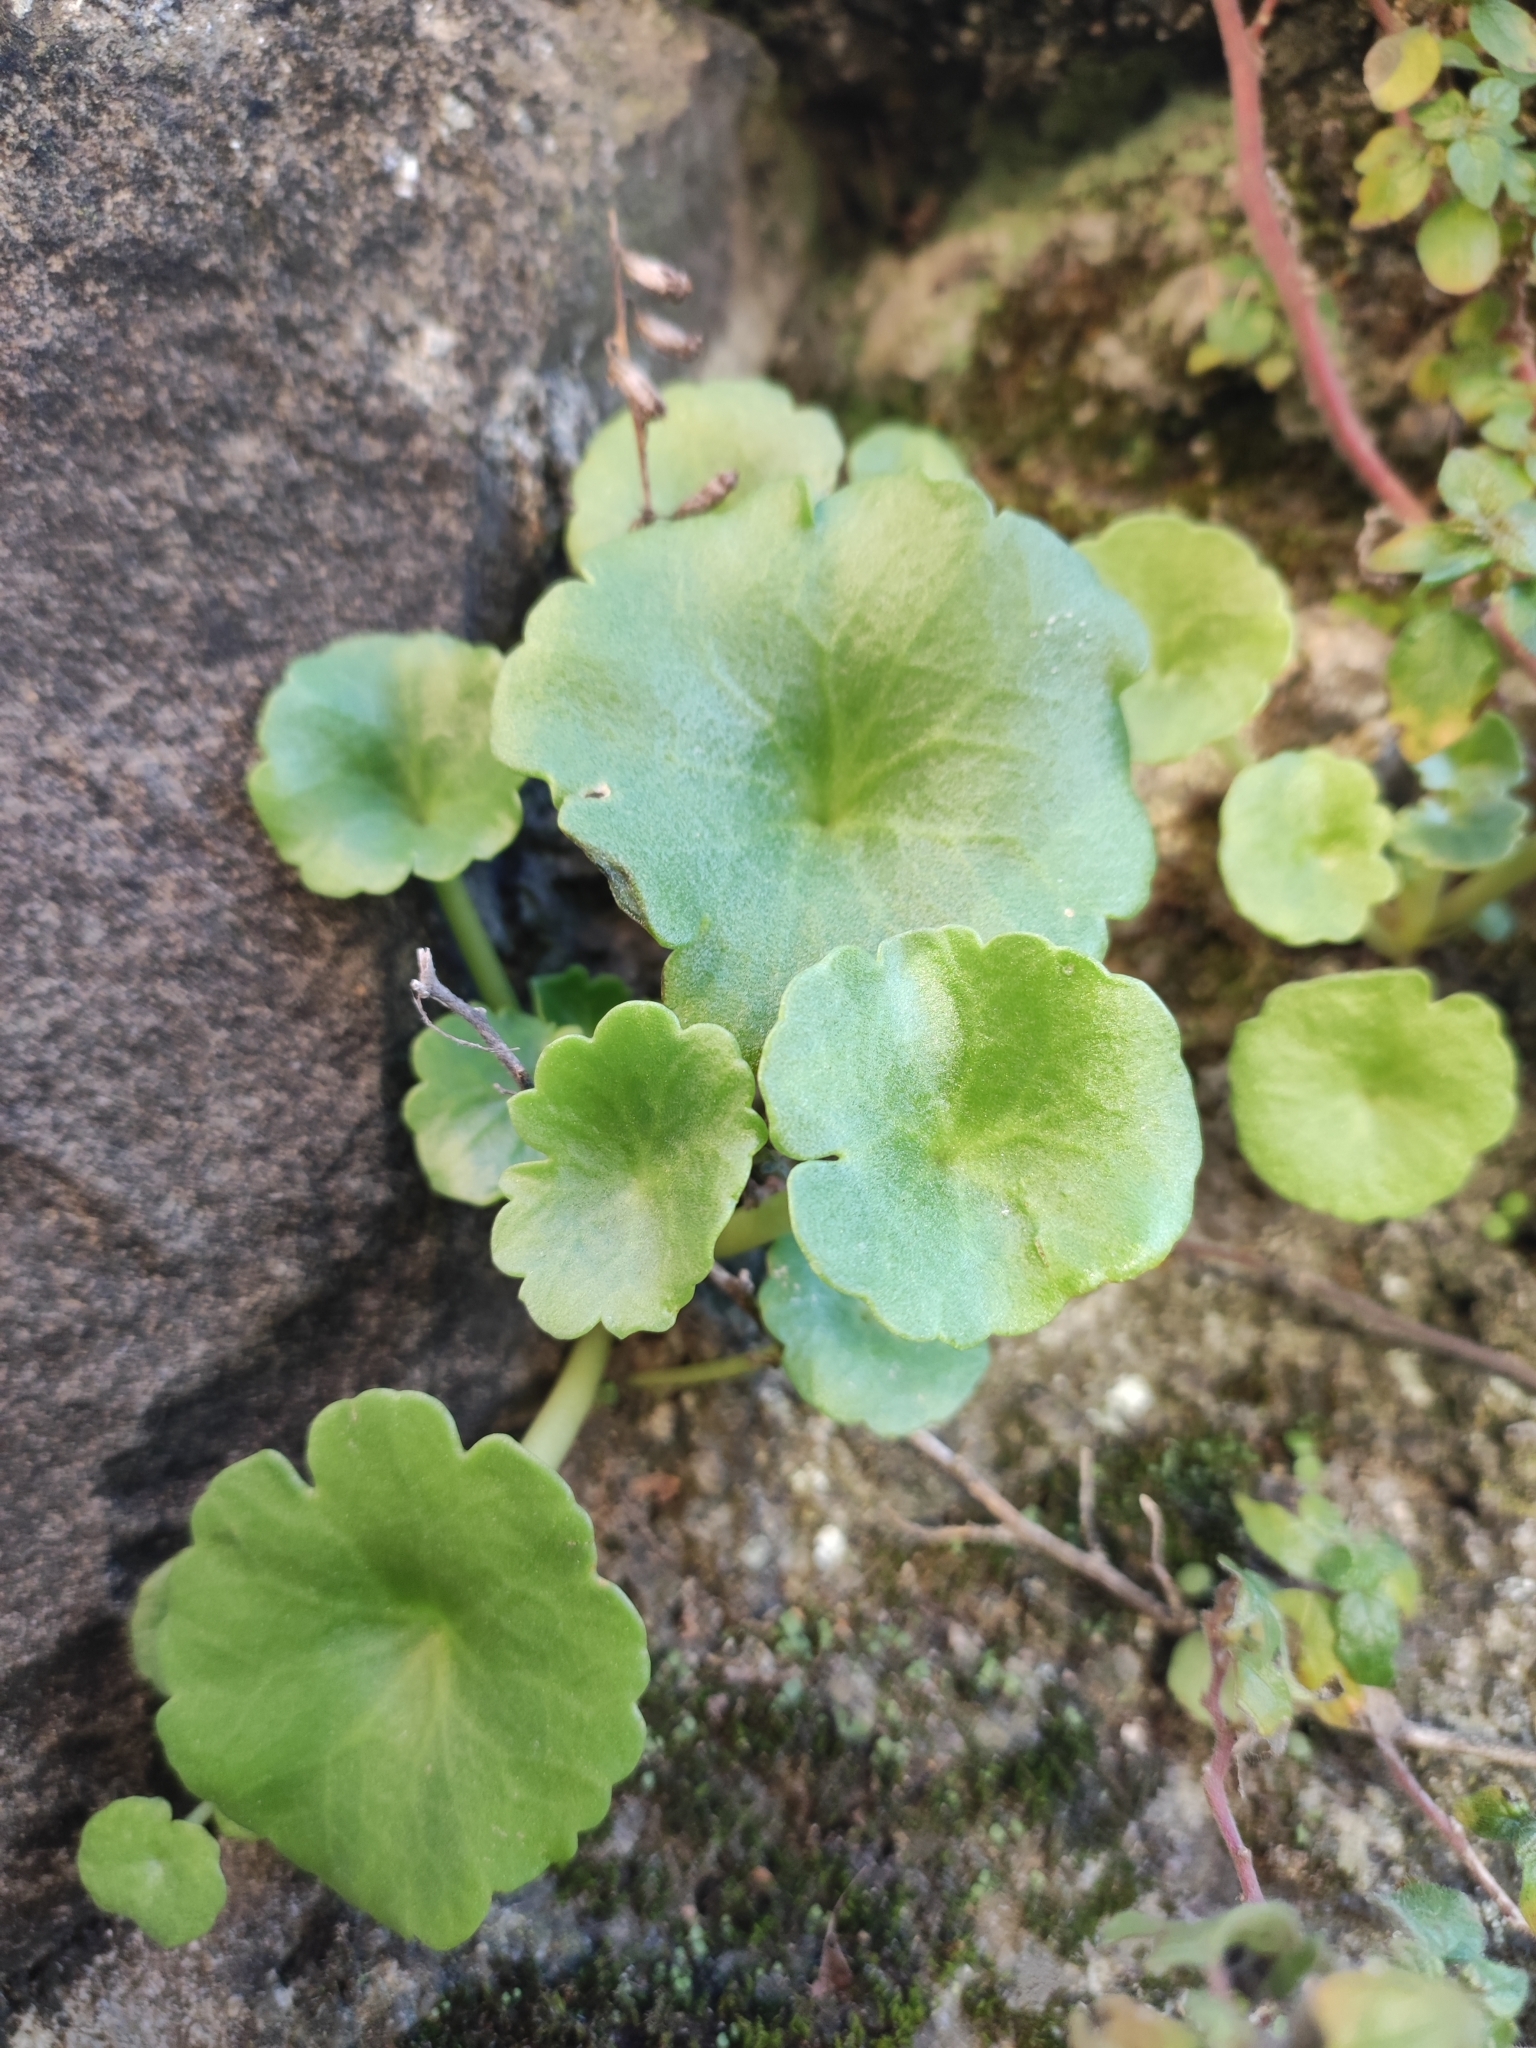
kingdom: Plantae
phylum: Tracheophyta
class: Magnoliopsida
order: Saxifragales
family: Crassulaceae
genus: Umbilicus
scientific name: Umbilicus rupestris
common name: Navelwort
